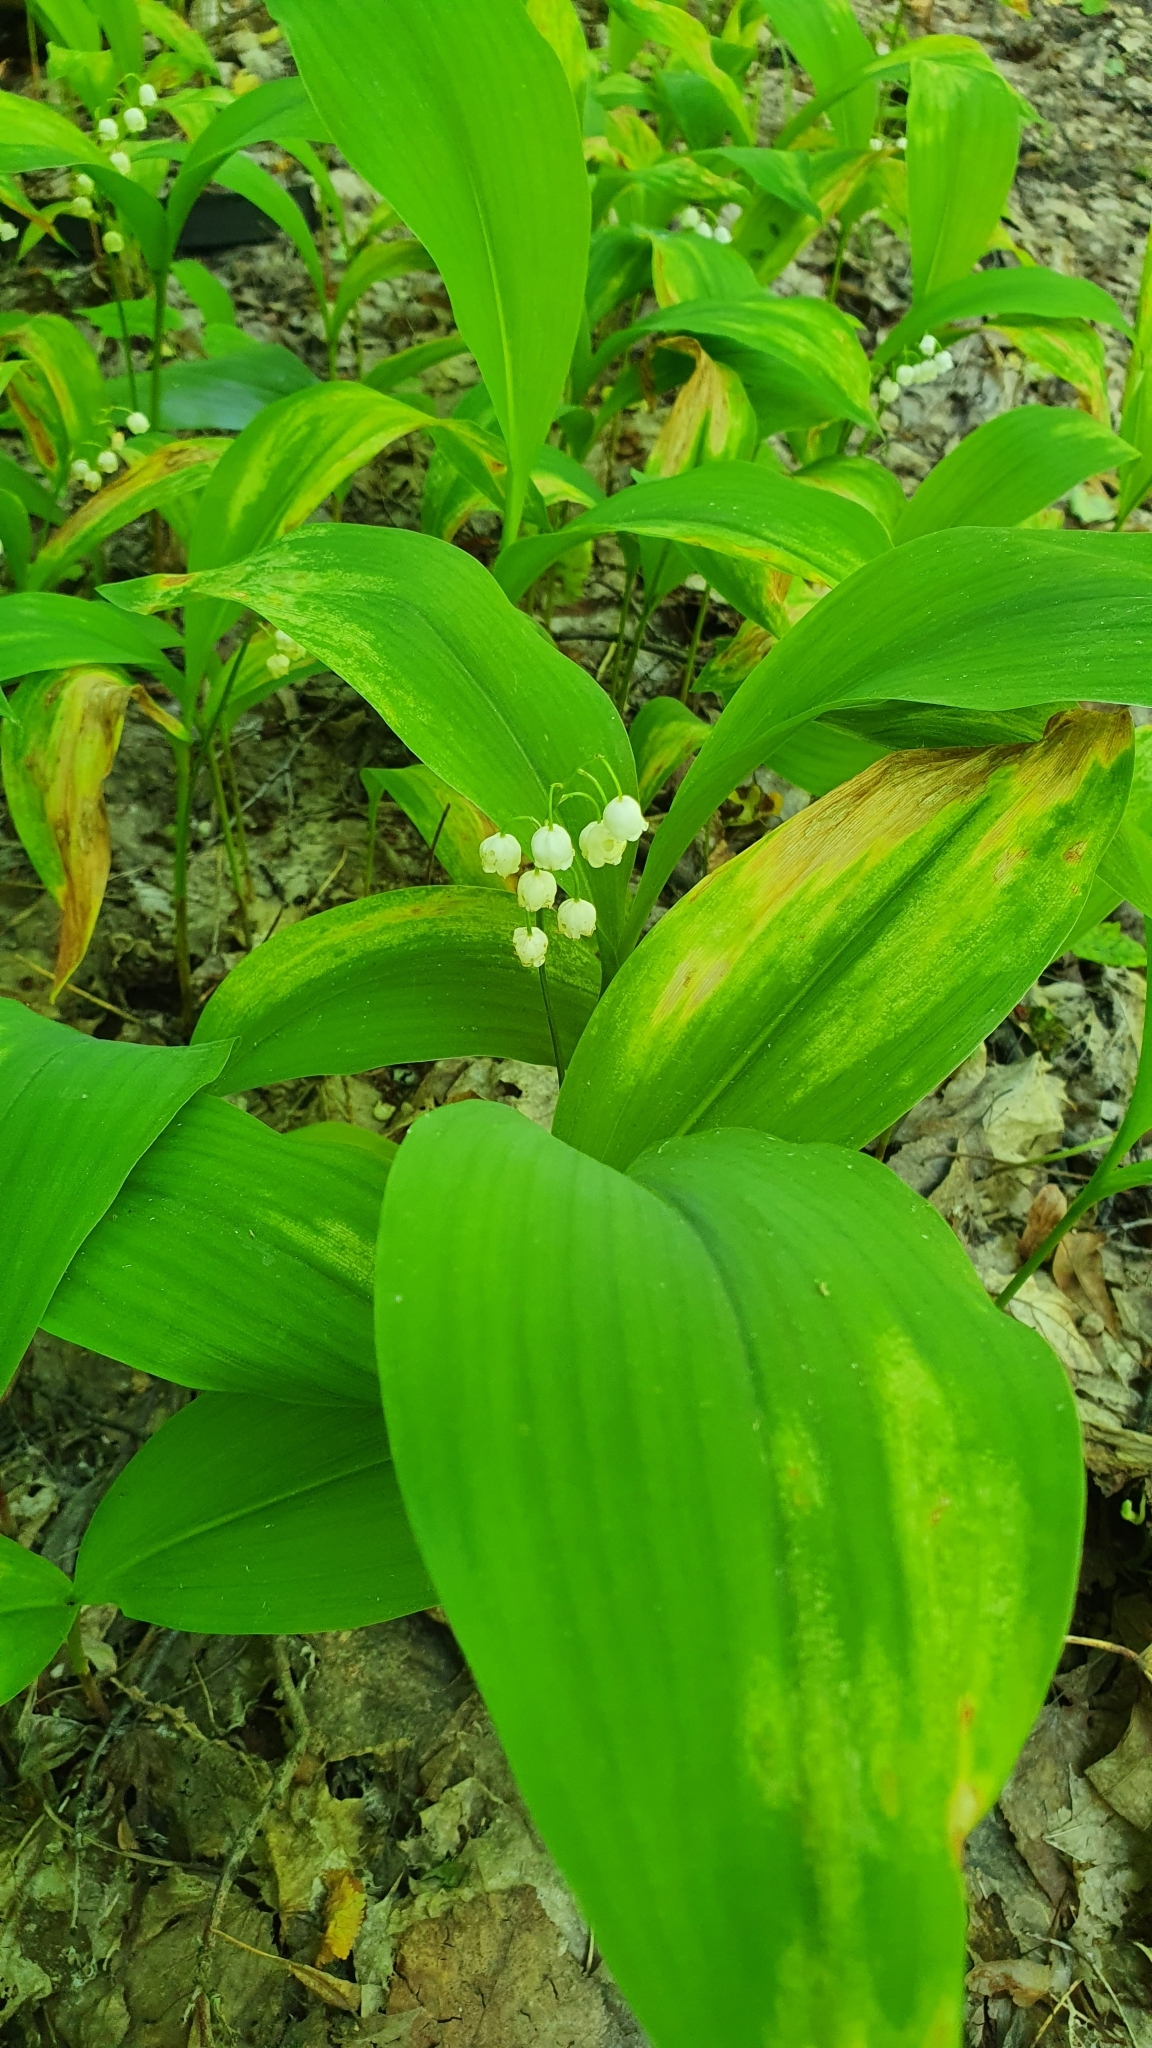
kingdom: Plantae
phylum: Tracheophyta
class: Liliopsida
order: Asparagales
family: Asparagaceae
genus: Convallaria
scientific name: Convallaria majalis
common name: Lily-of-the-valley
